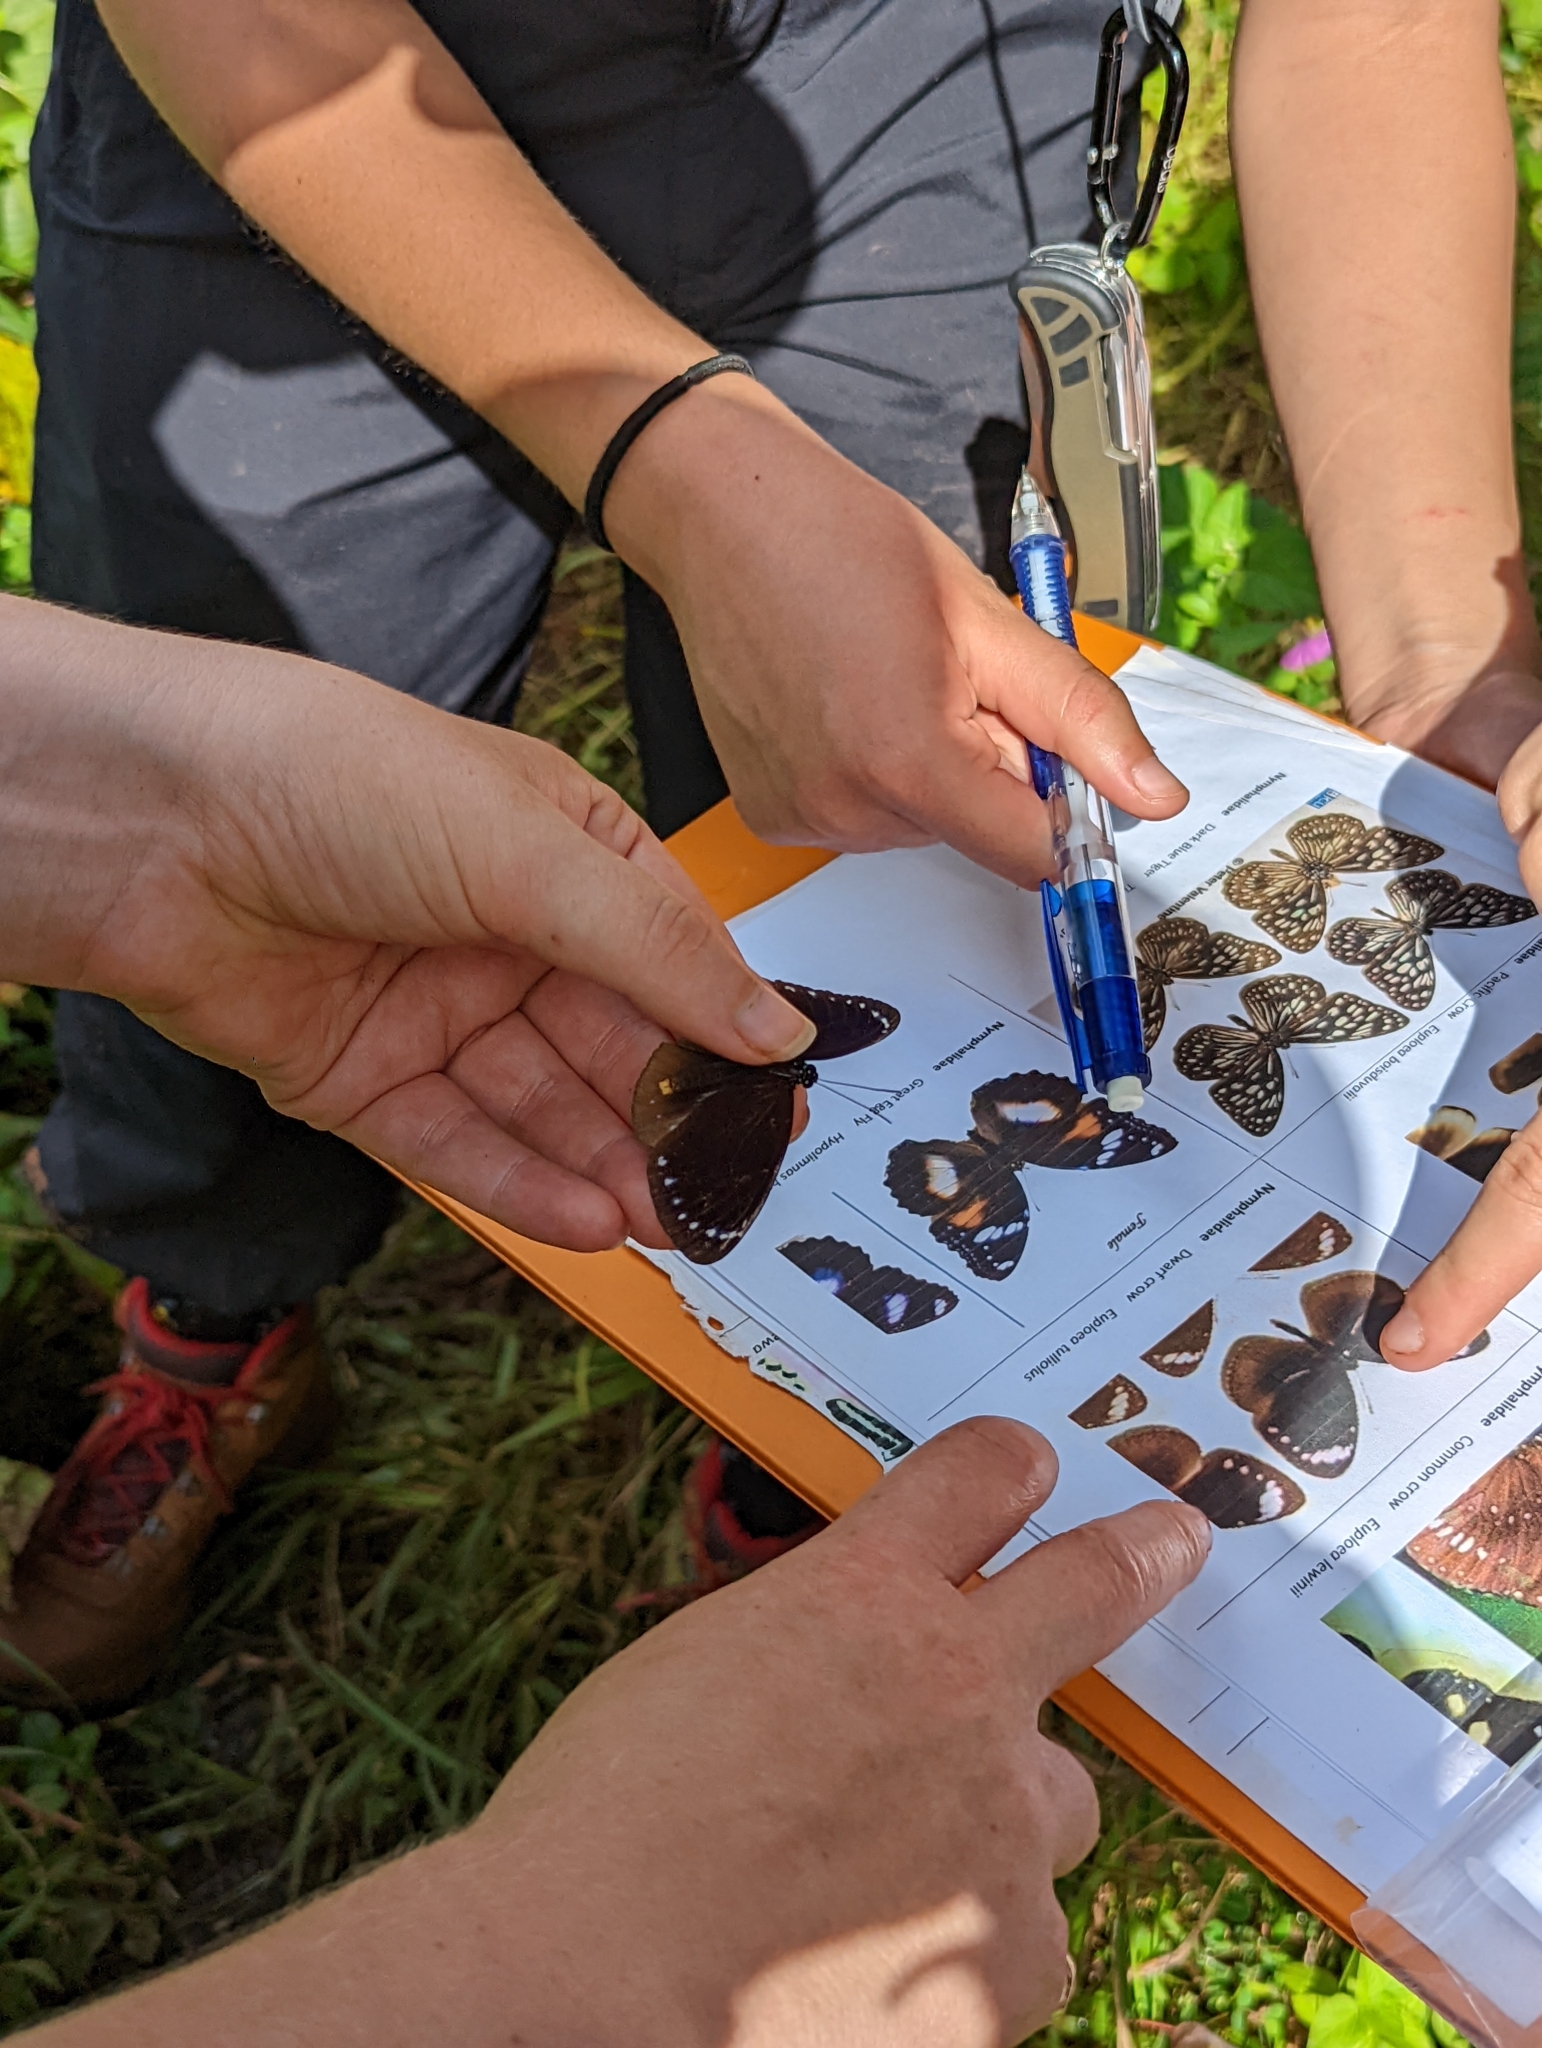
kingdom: Animalia
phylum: Arthropoda
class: Insecta
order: Lepidoptera
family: Nymphalidae
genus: Euploea
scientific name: Euploea tulliolus
